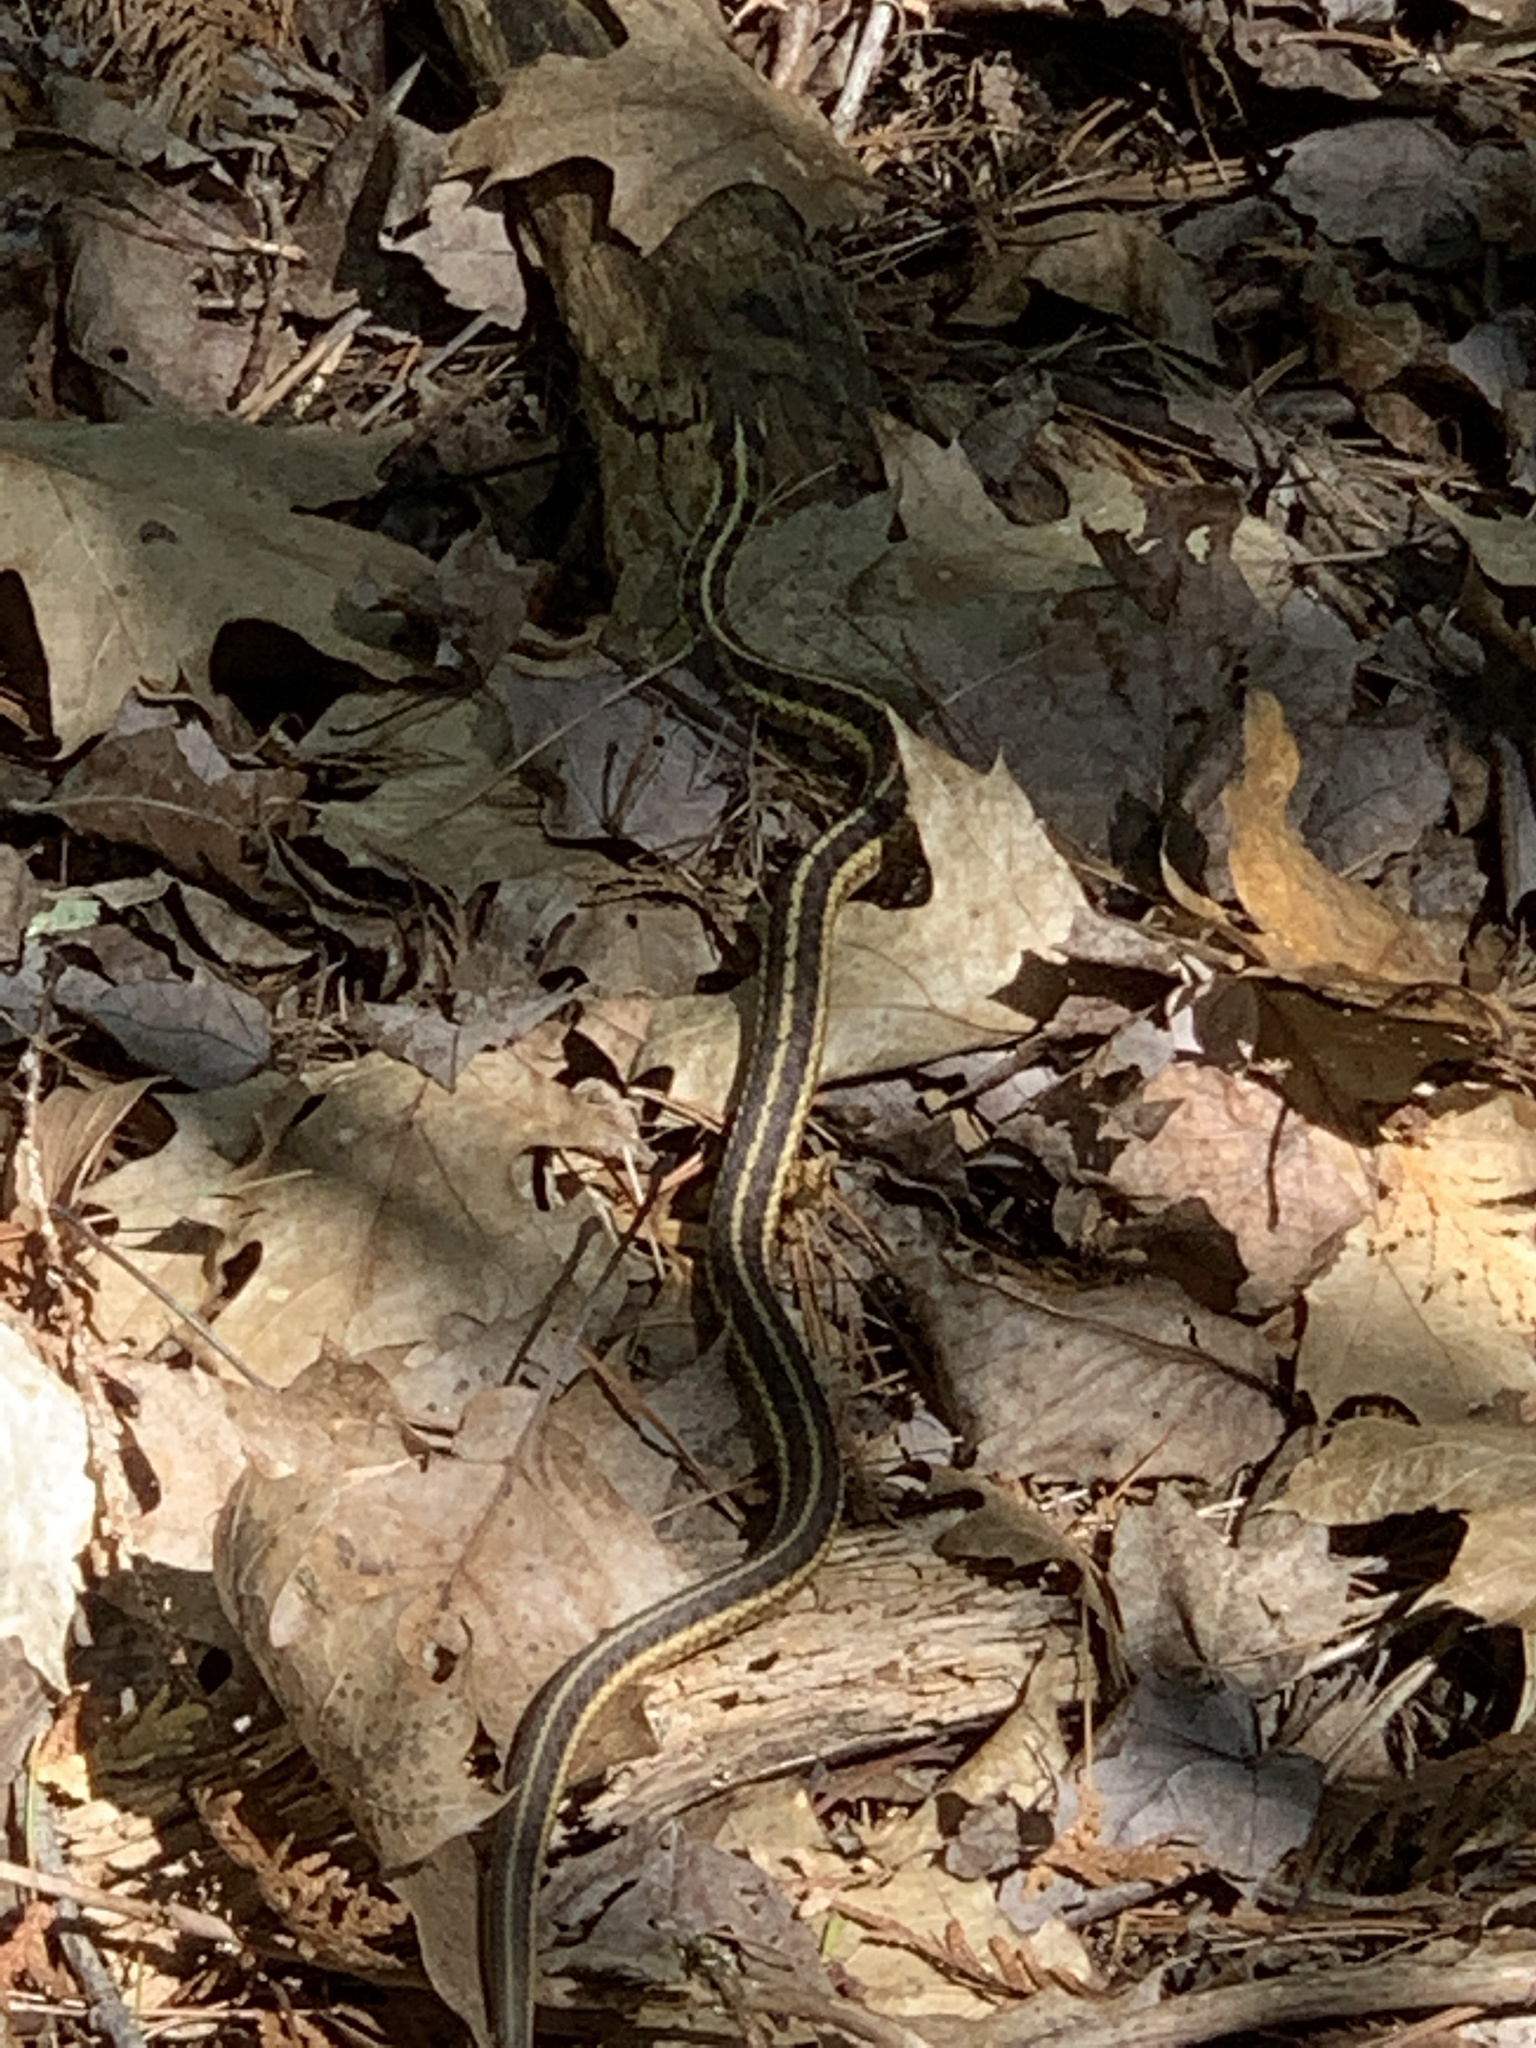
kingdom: Animalia
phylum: Chordata
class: Squamata
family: Colubridae
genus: Thamnophis
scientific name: Thamnophis sirtalis
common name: Common garter snake
